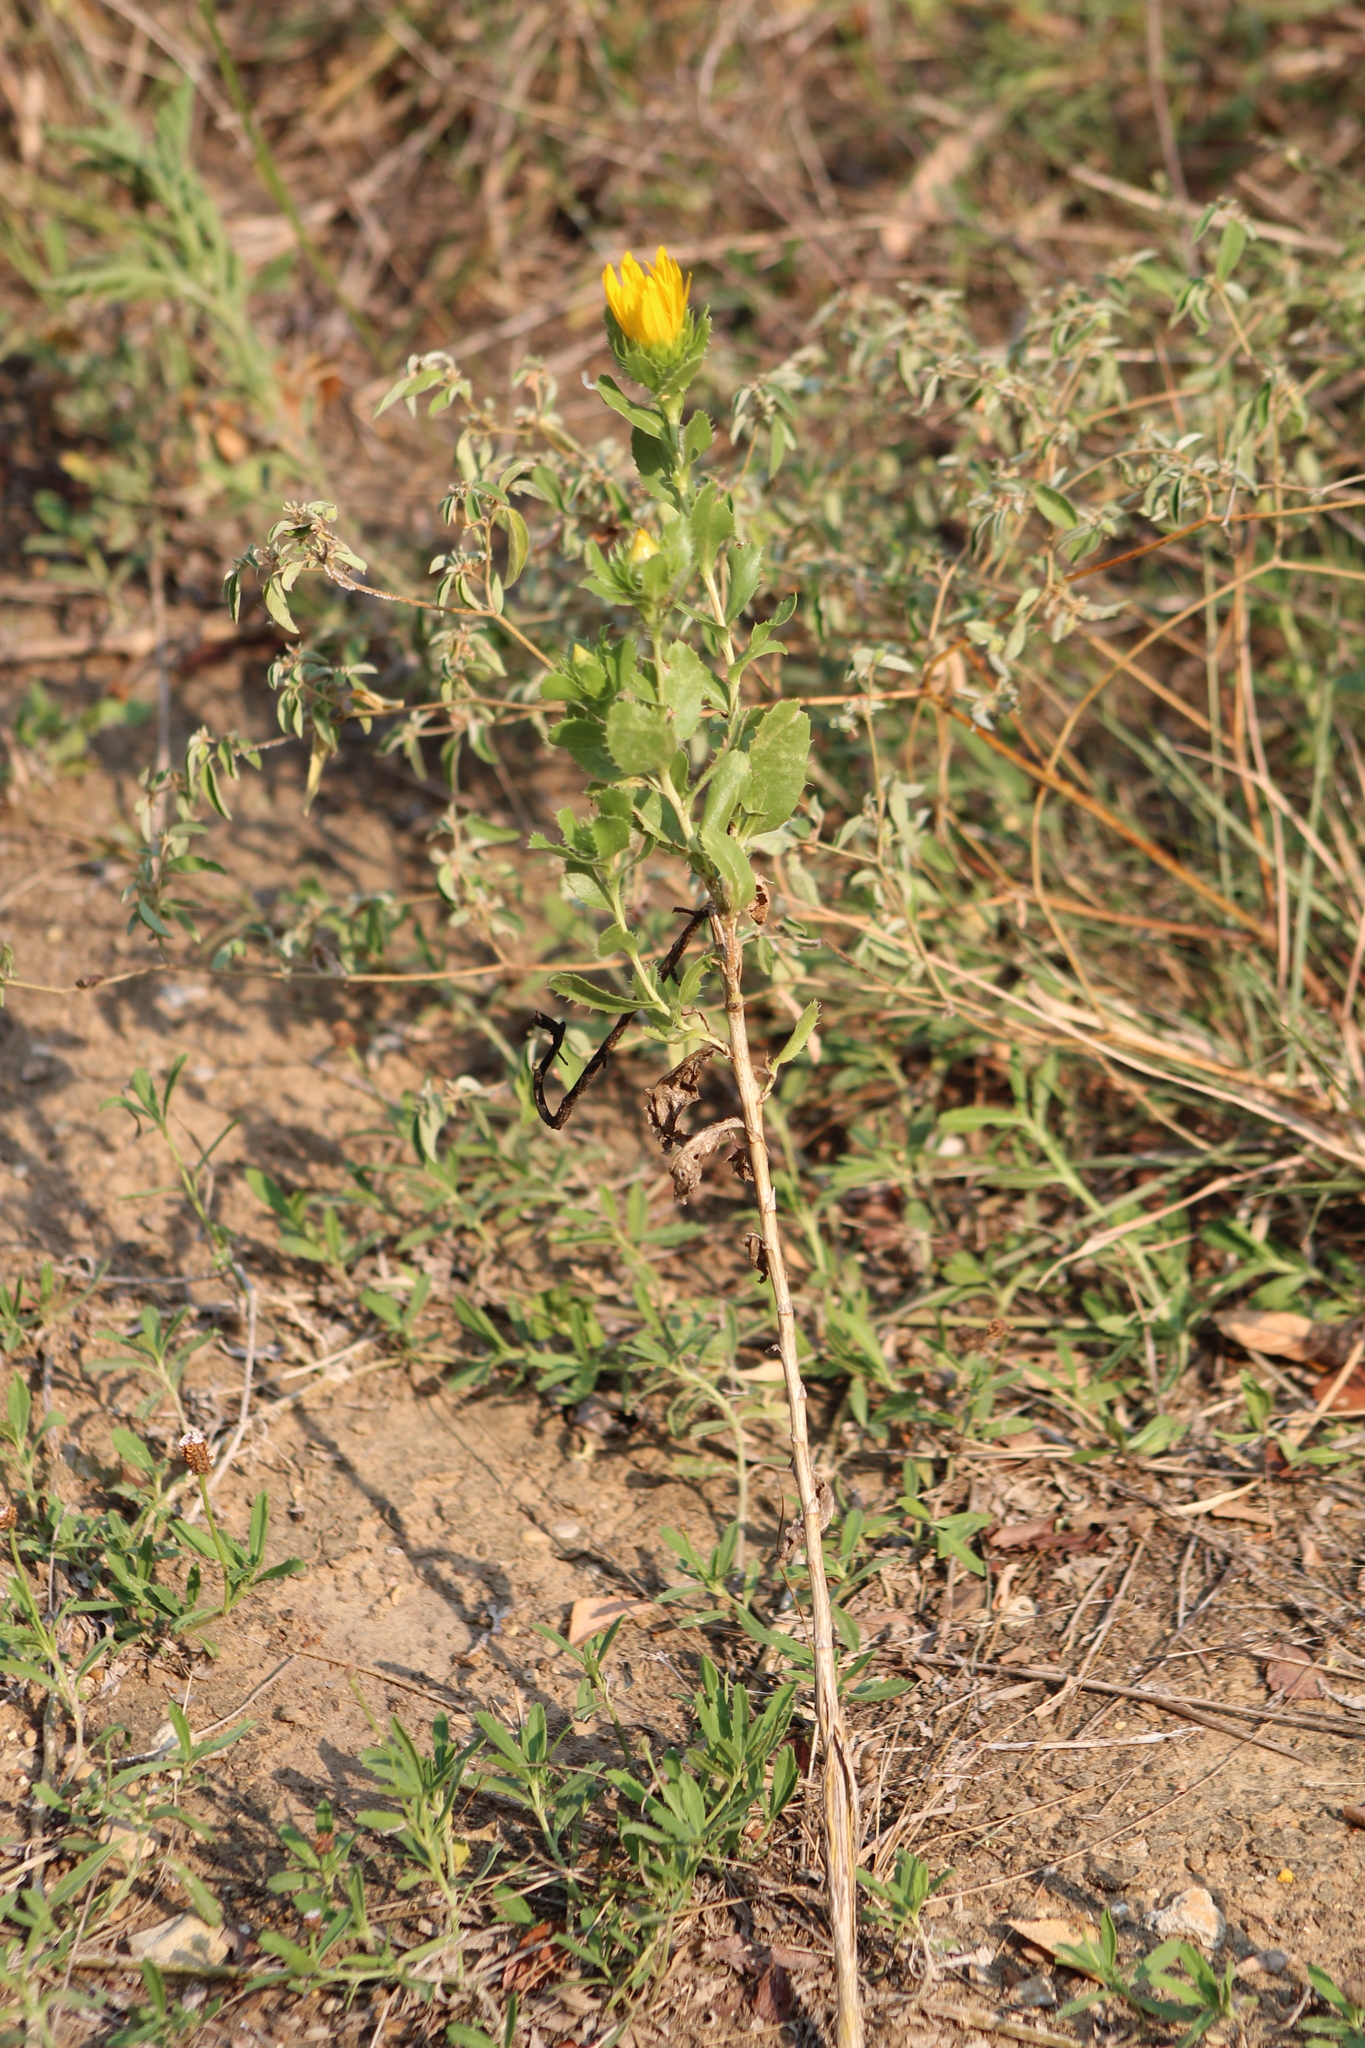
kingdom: Plantae
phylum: Tracheophyta
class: Magnoliopsida
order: Asterales
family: Asteraceae
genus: Grindelia
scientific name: Grindelia ciliata
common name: Goldenweed
